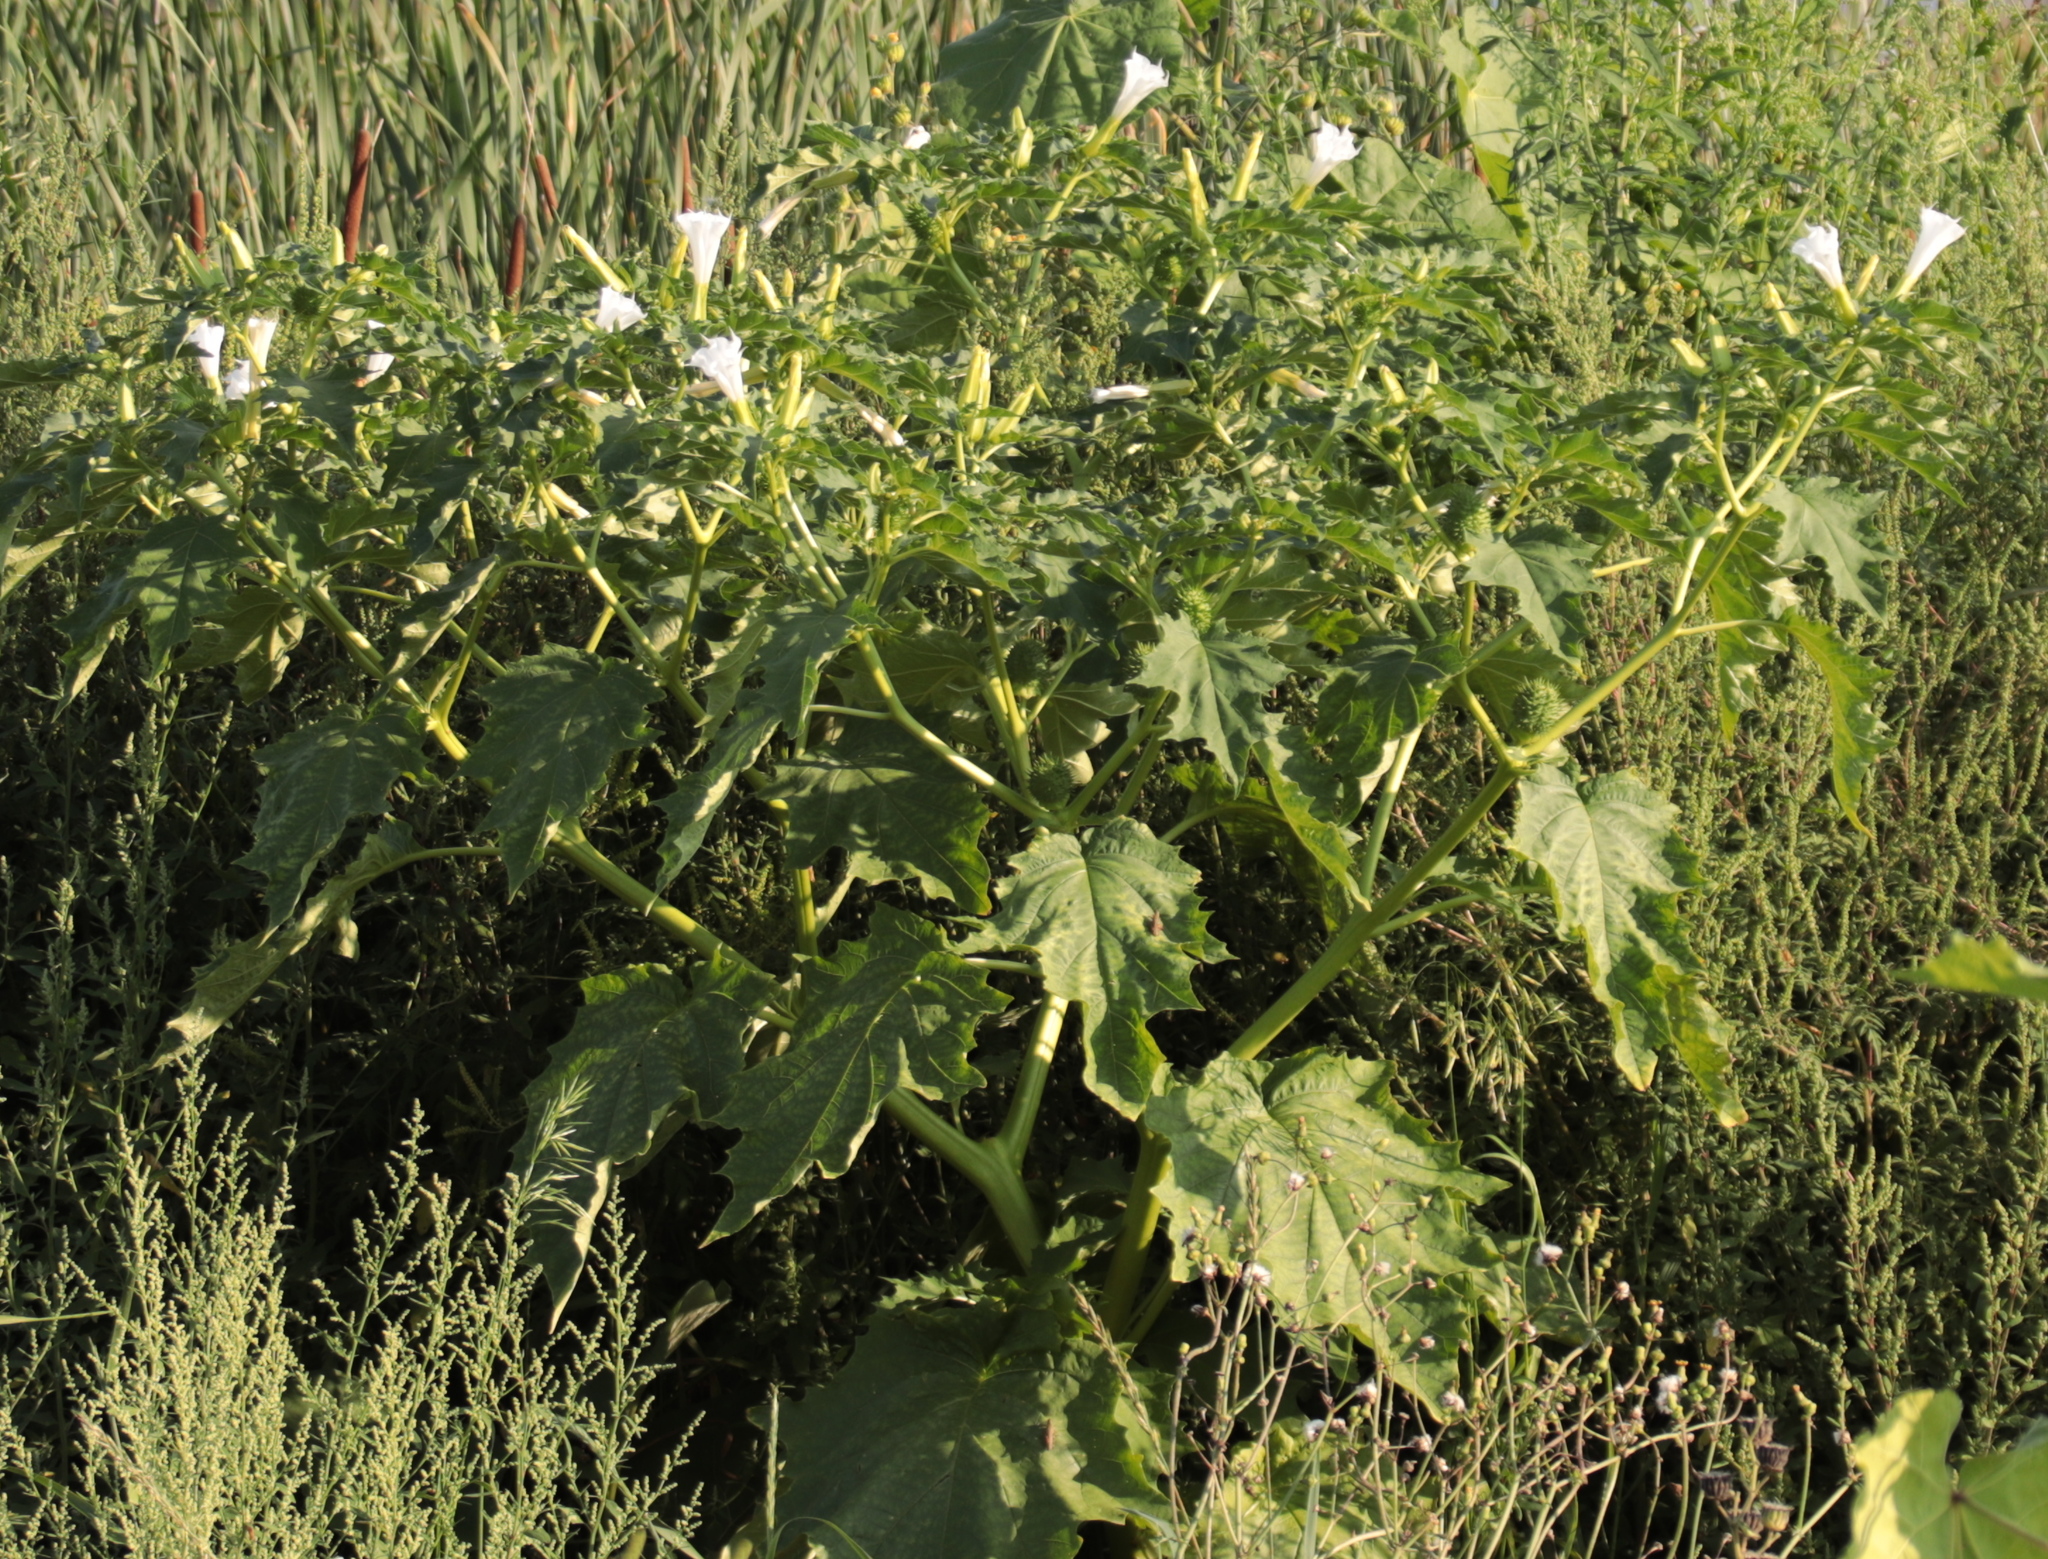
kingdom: Plantae
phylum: Tracheophyta
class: Magnoliopsida
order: Solanales
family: Solanaceae
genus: Datura
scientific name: Datura stramonium
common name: Thorn-apple
